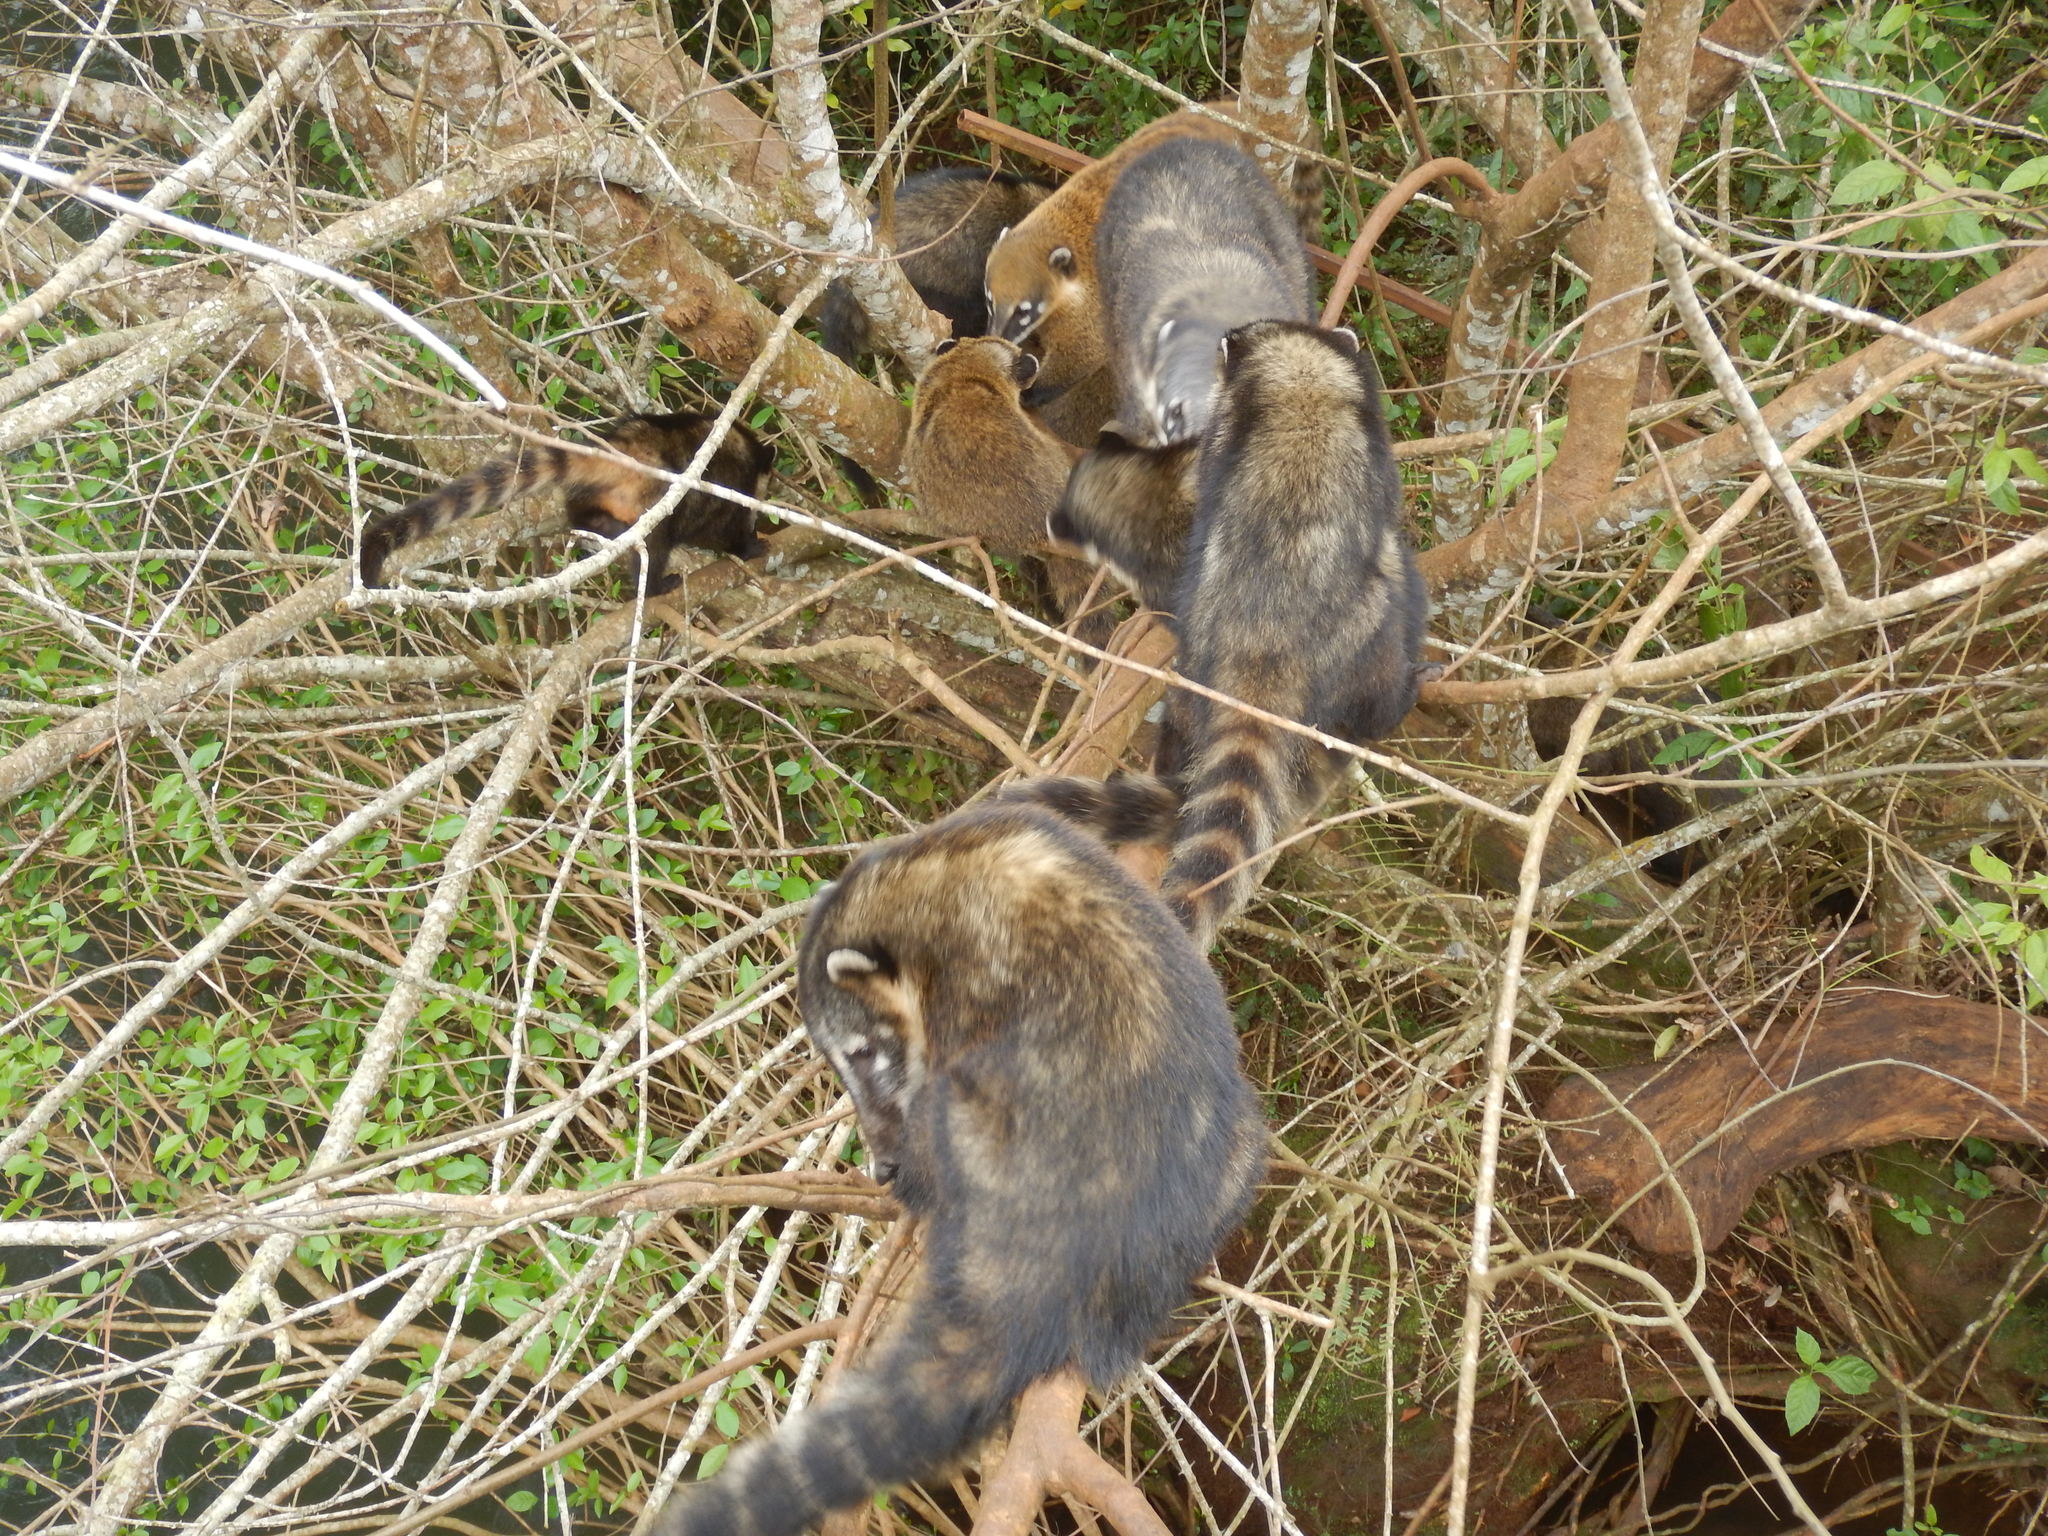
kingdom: Animalia
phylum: Chordata
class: Mammalia
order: Carnivora
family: Procyonidae
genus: Nasua
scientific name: Nasua nasua
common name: South american coati
